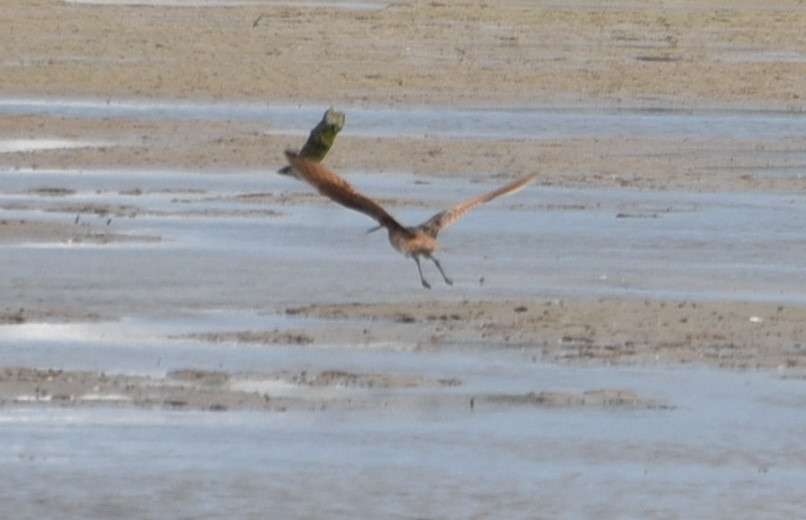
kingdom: Animalia
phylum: Chordata
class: Aves
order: Charadriiformes
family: Scolopacidae
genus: Limosa
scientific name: Limosa fedoa
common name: Marbled godwit
